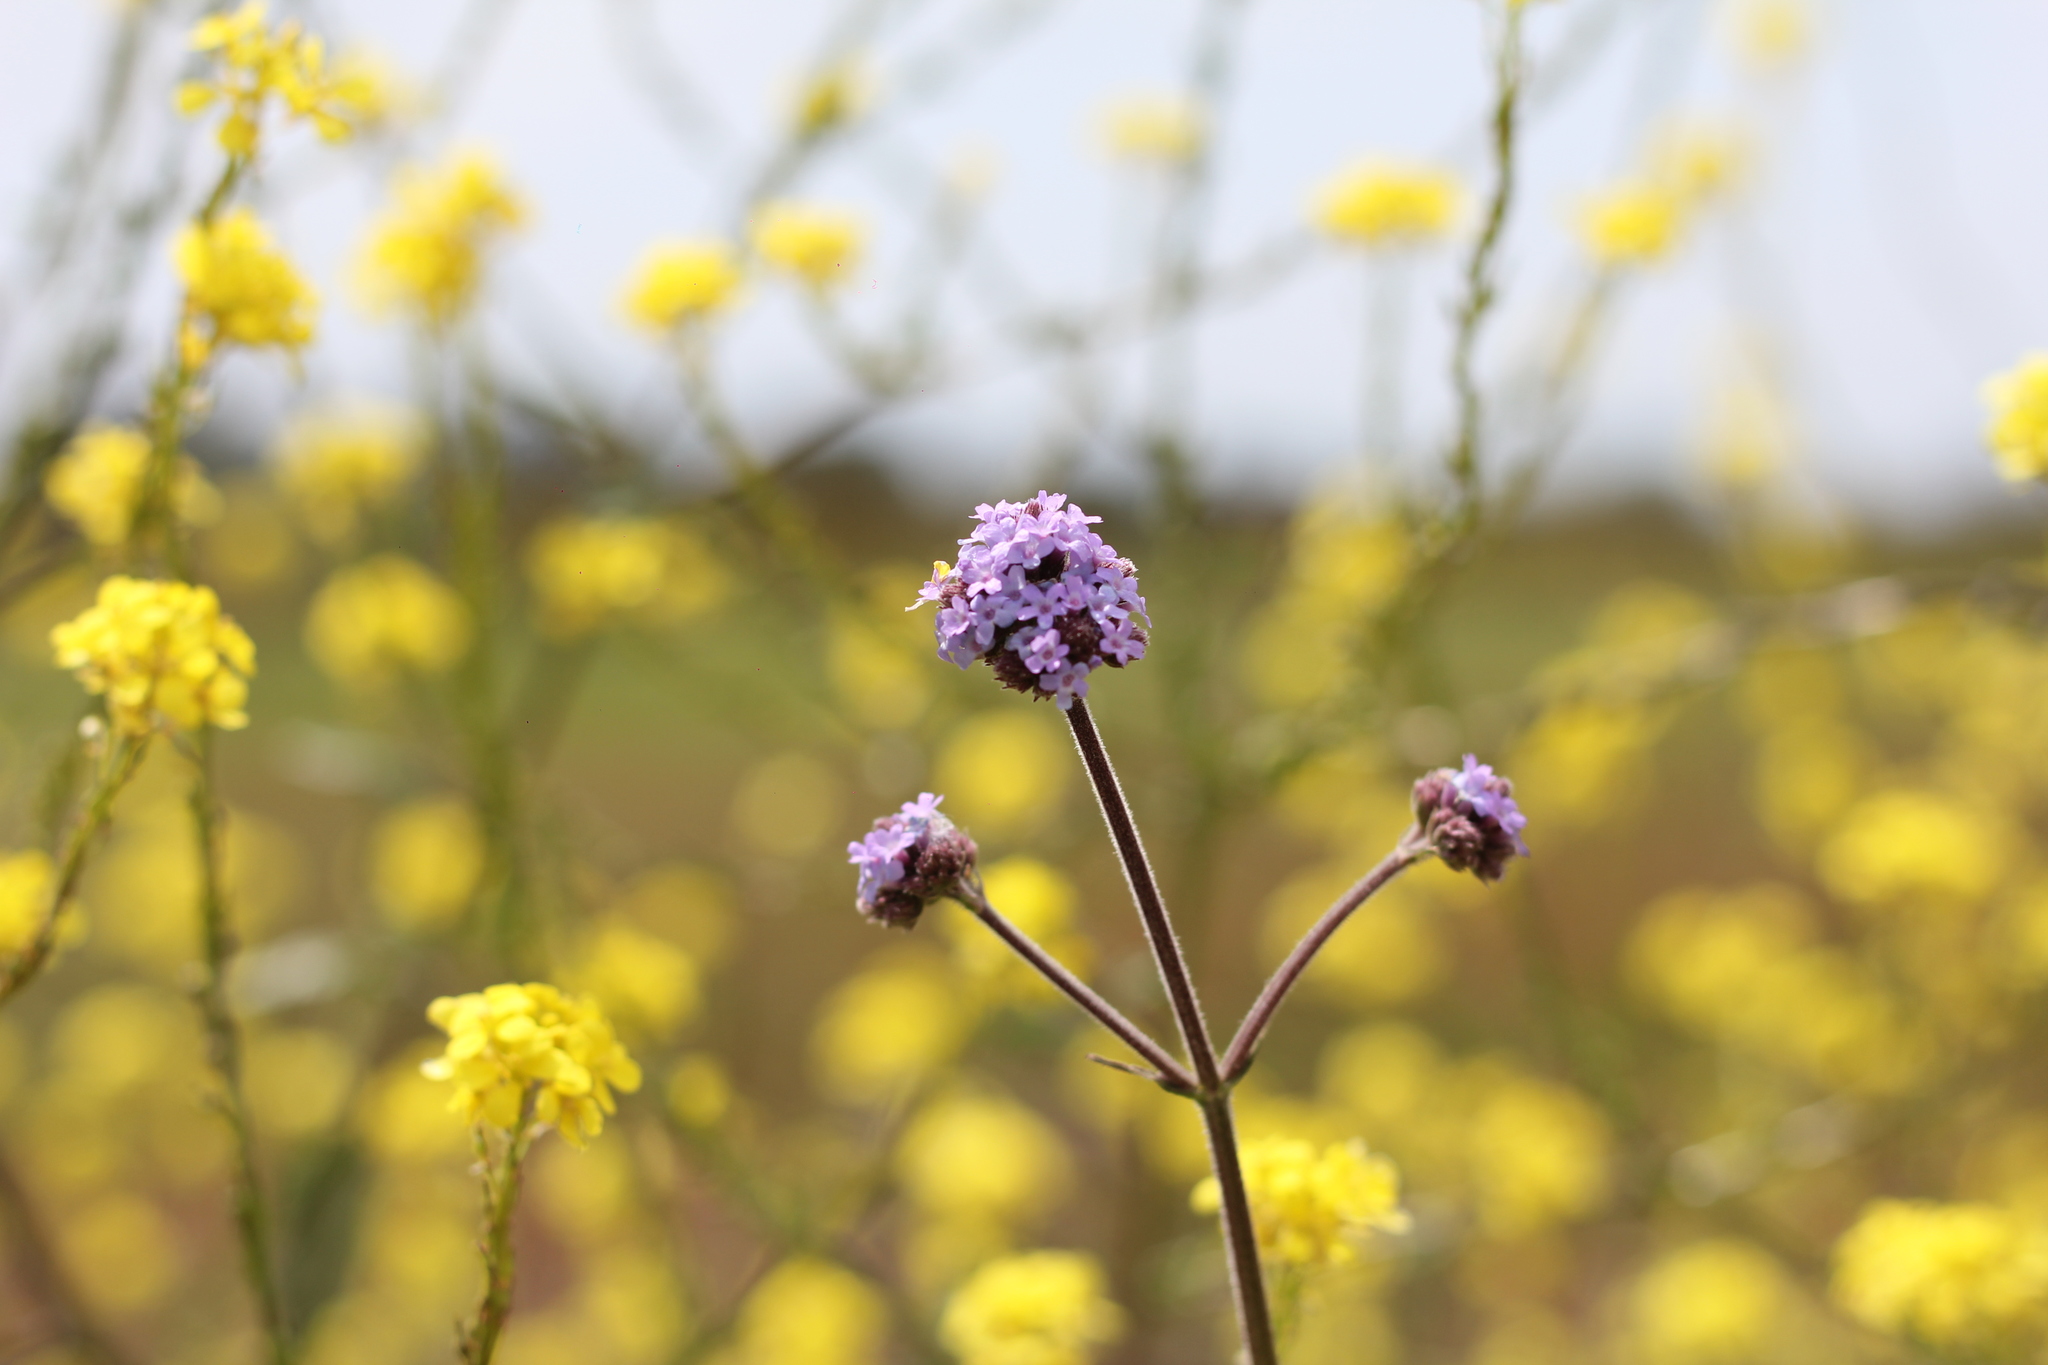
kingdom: Plantae
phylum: Tracheophyta
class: Magnoliopsida
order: Lamiales
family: Verbenaceae
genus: Verbena
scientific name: Verbena bonariensis
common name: Purpletop vervain
